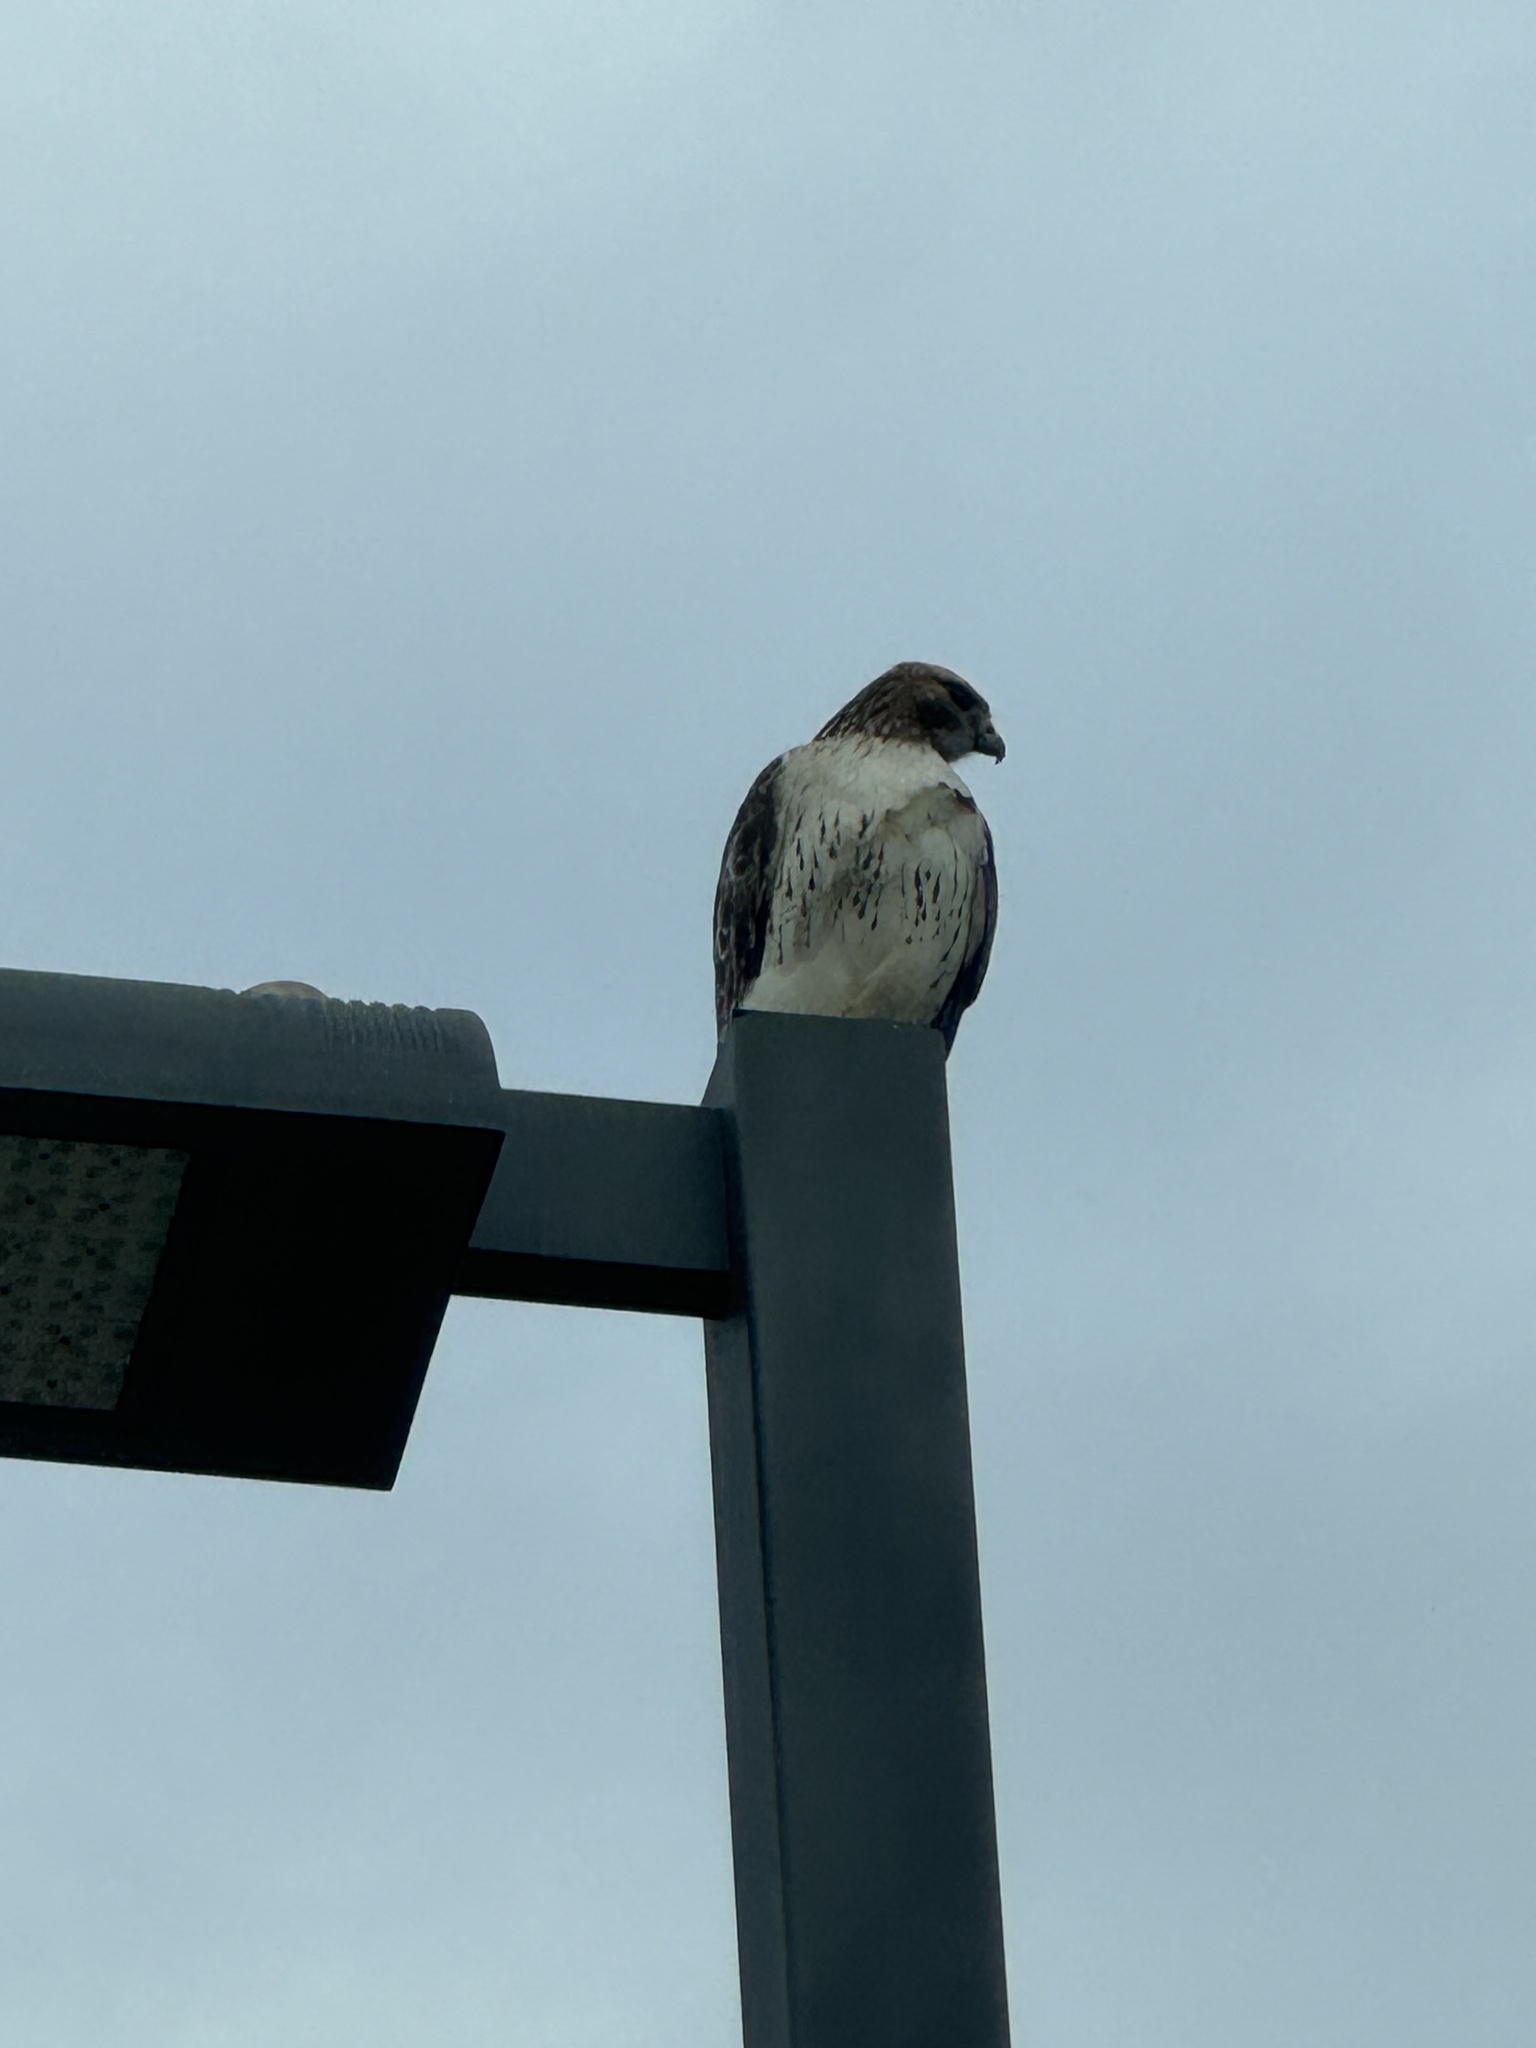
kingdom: Animalia
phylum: Chordata
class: Aves
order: Accipitriformes
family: Accipitridae
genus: Buteo
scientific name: Buteo jamaicensis
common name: Red-tailed hawk
